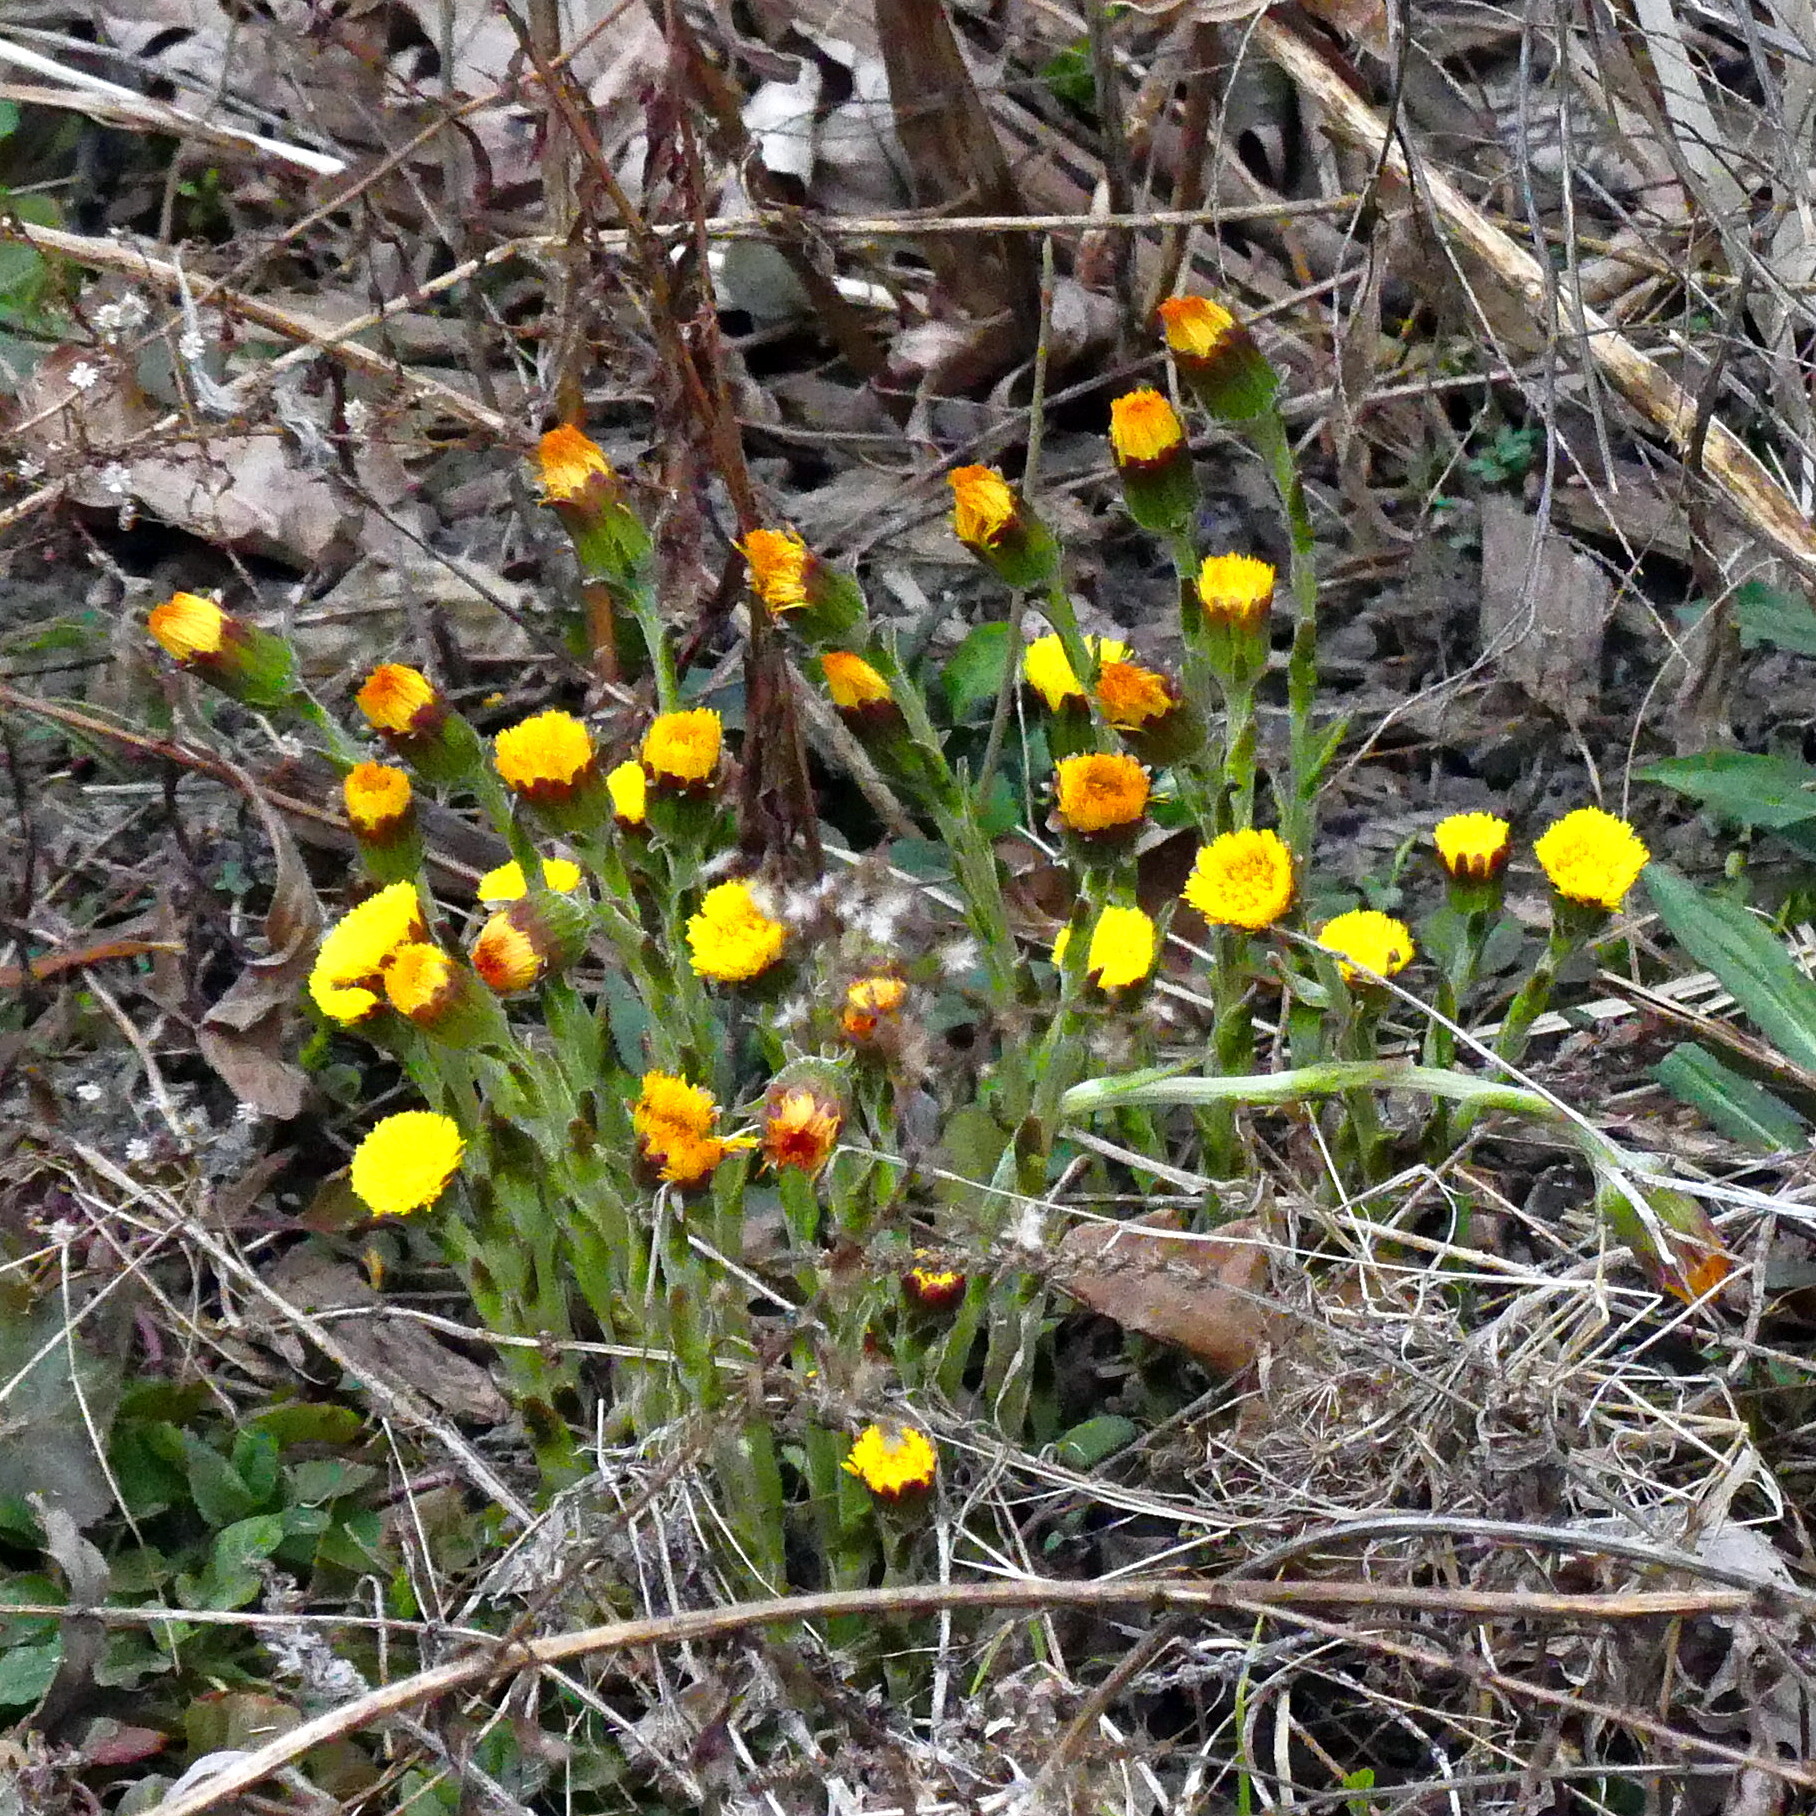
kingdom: Plantae
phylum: Tracheophyta
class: Magnoliopsida
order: Asterales
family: Asteraceae
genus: Tussilago
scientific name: Tussilago farfara
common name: Coltsfoot
